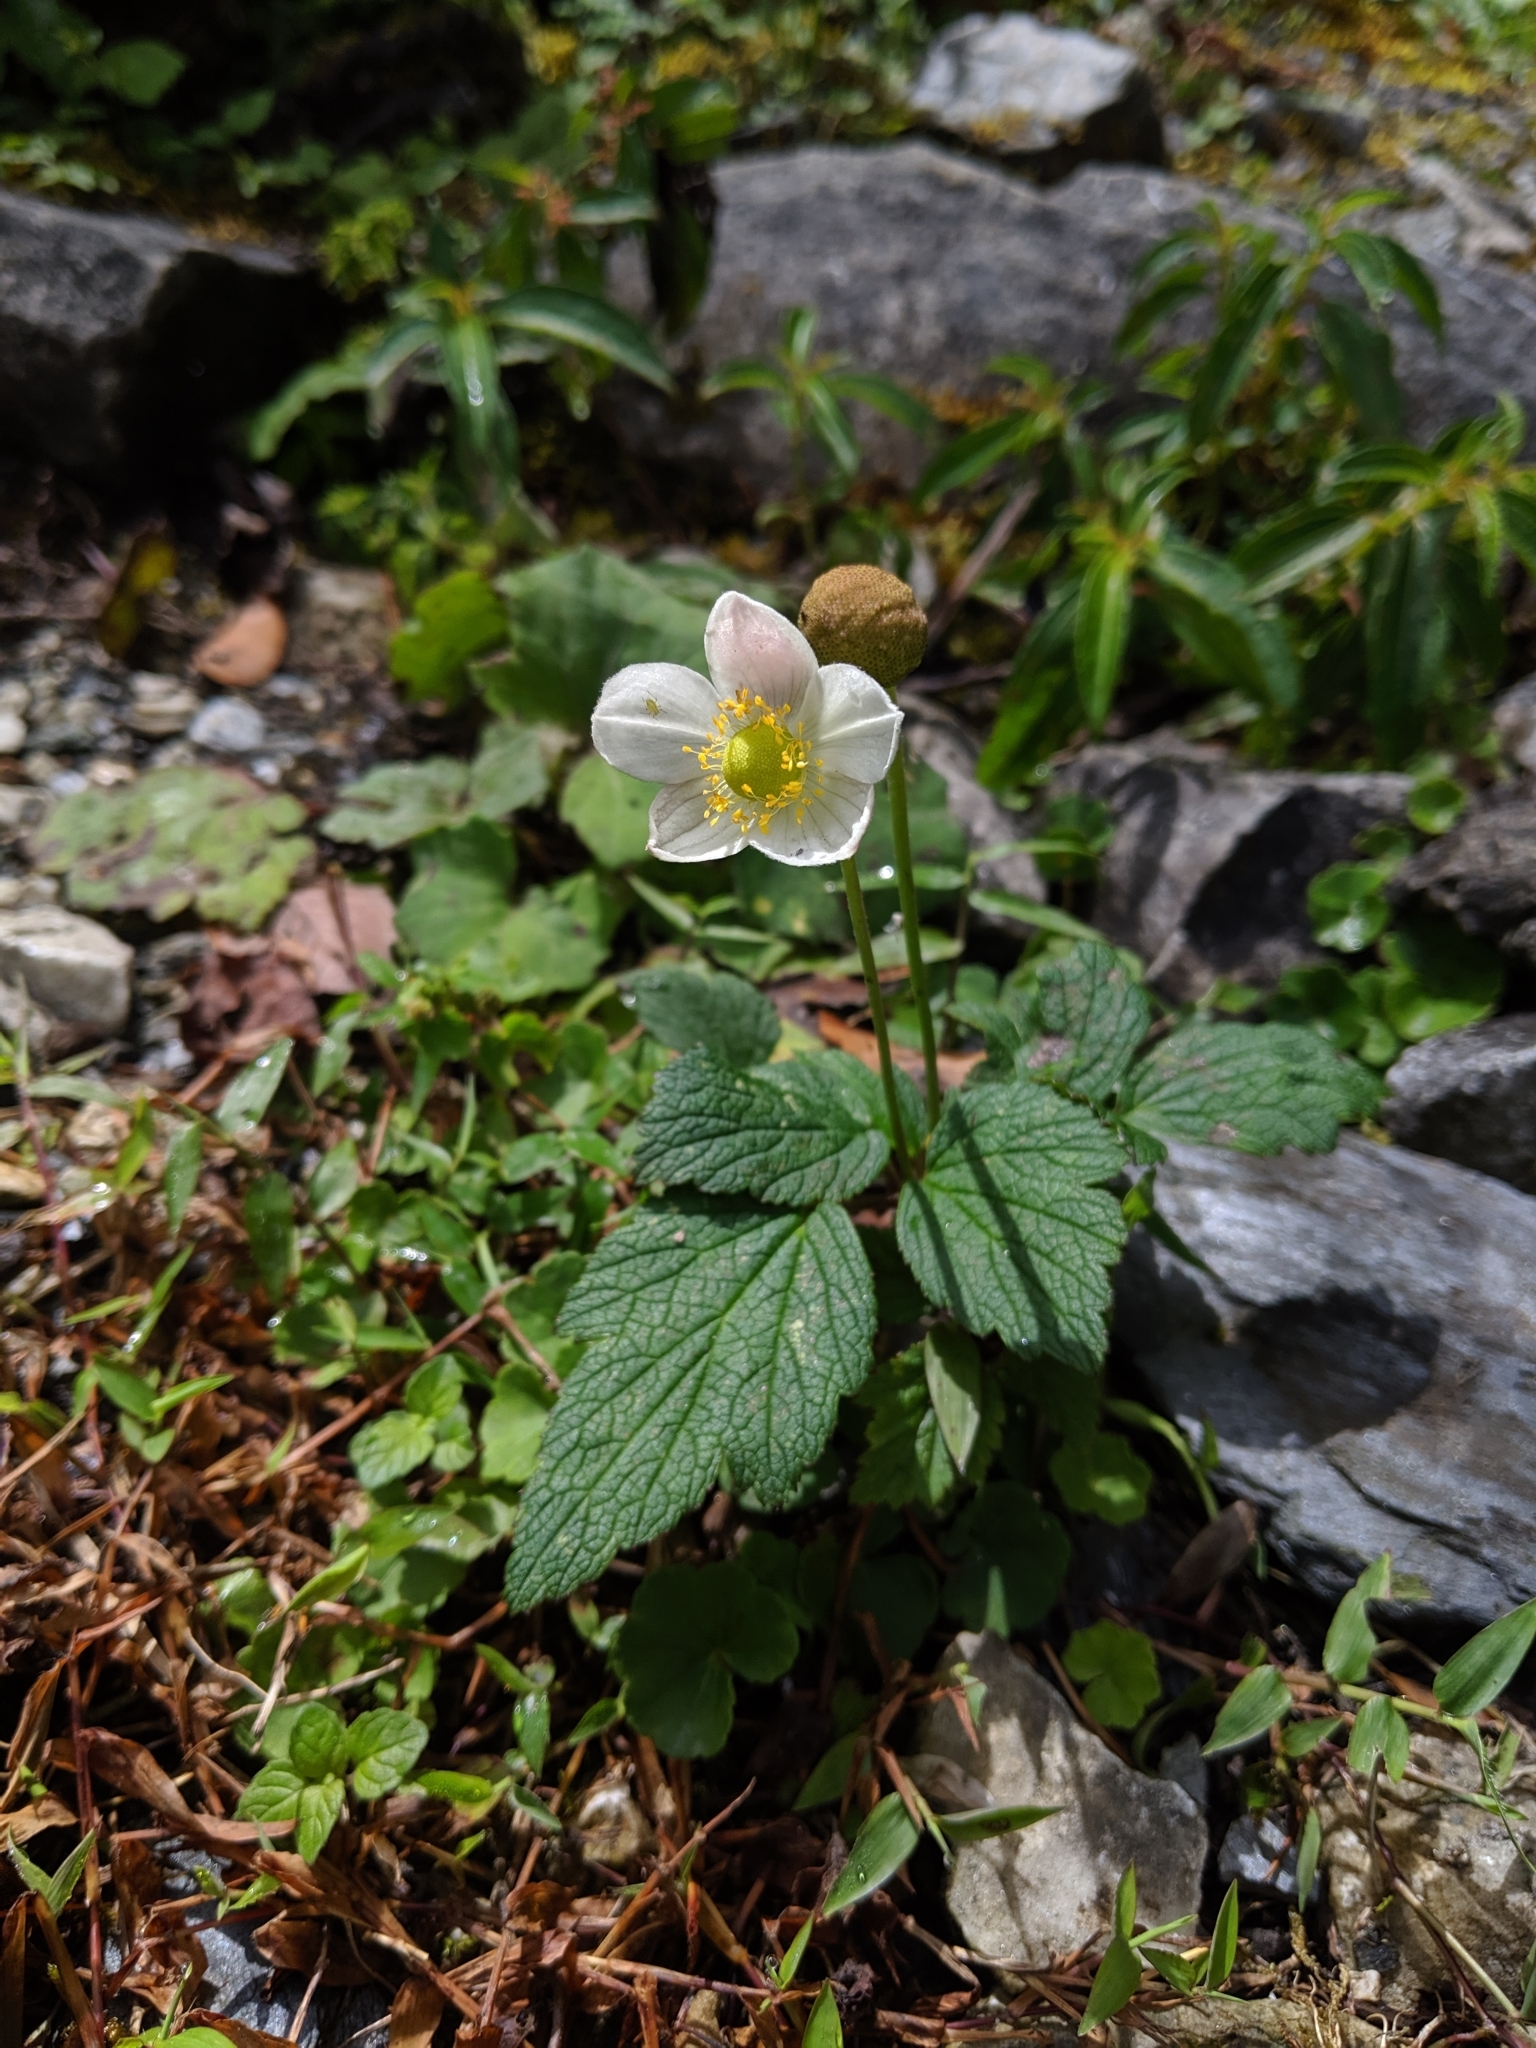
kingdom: Plantae
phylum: Tracheophyta
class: Magnoliopsida
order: Ranunculales
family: Ranunculaceae
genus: Eriocapitella
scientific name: Eriocapitella vitifolia
